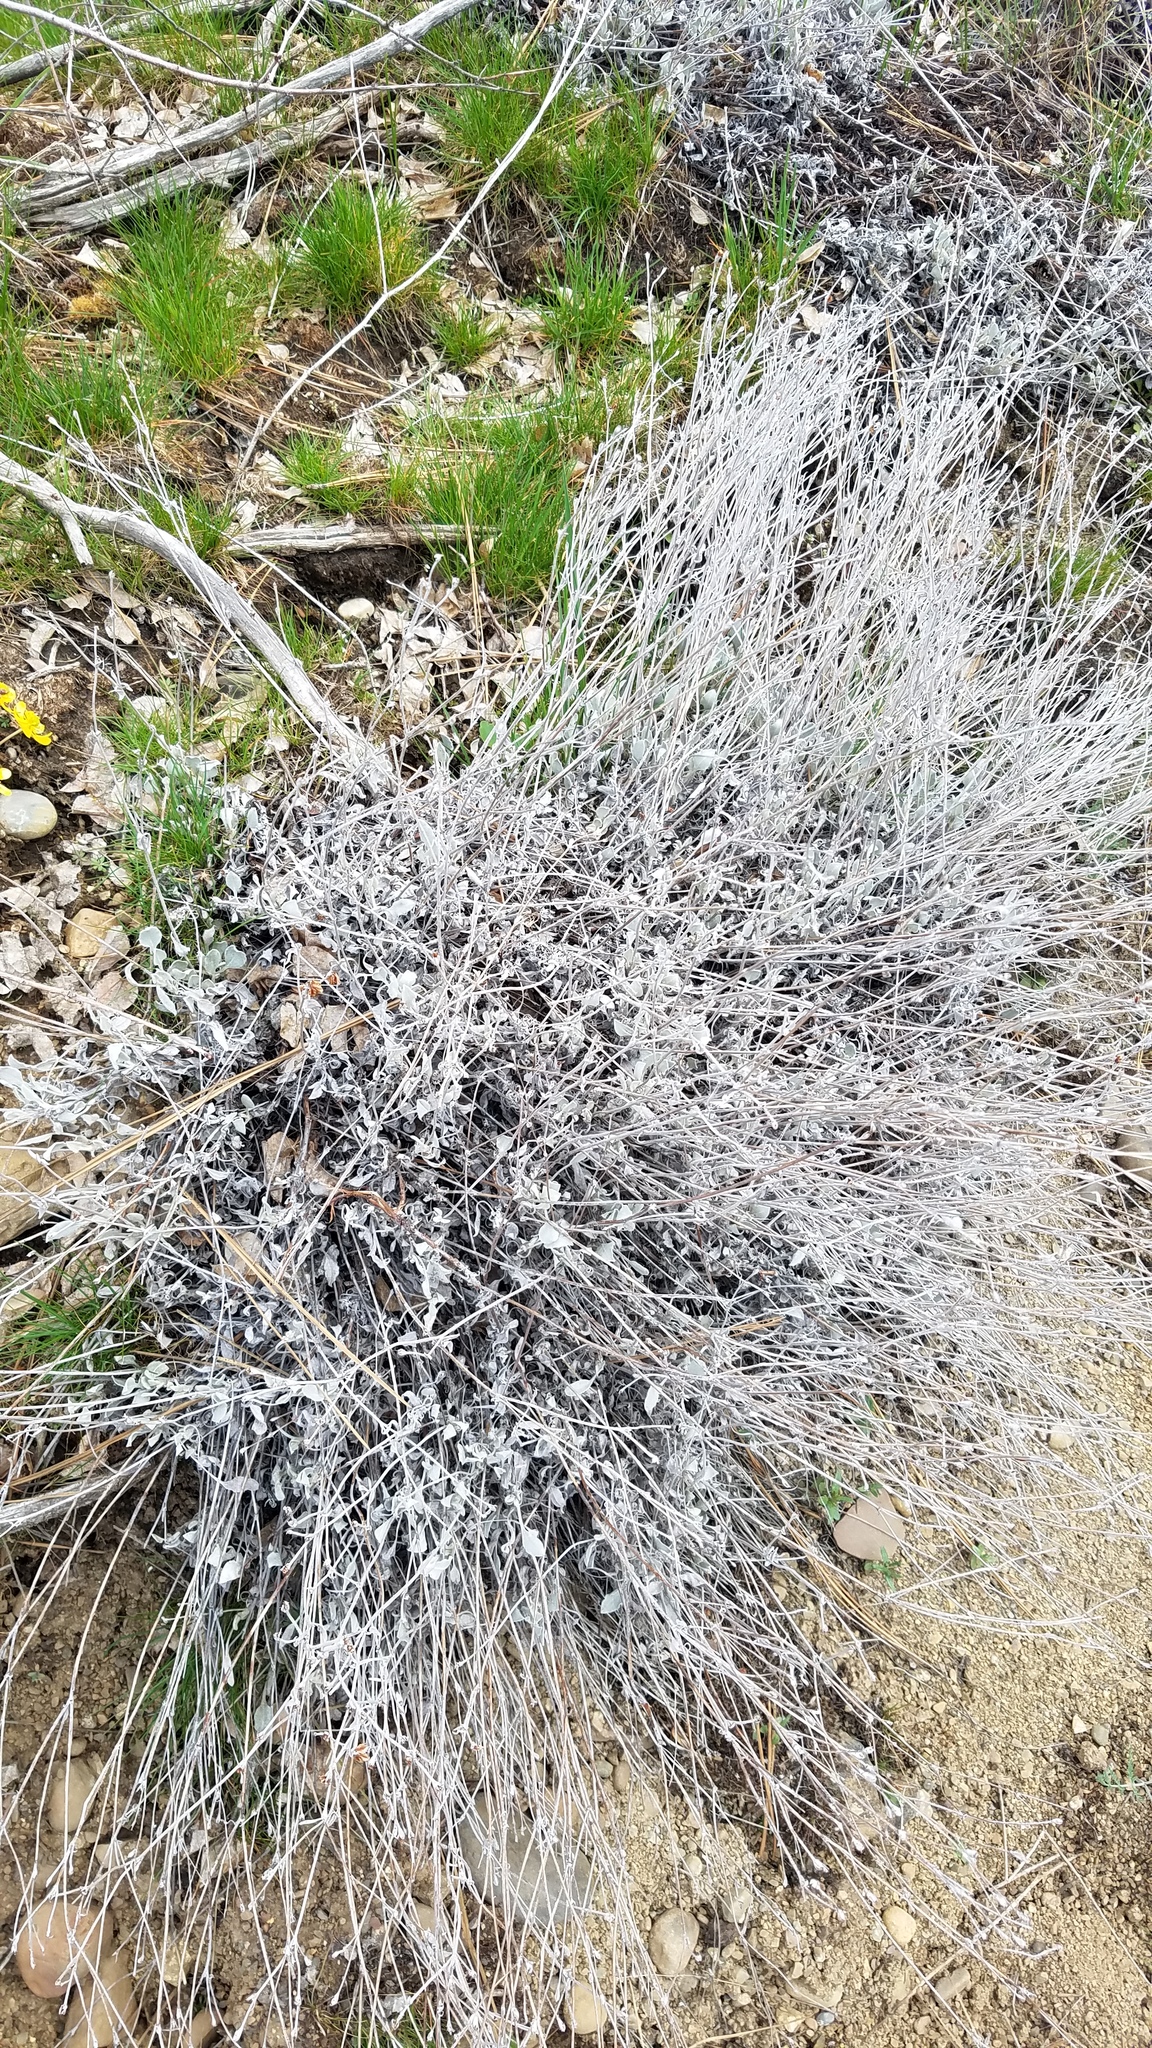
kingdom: Plantae
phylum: Tracheophyta
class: Magnoliopsida
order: Caryophyllales
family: Polygonaceae
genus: Eriogonum
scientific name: Eriogonum niveum
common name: Snow wild buckwheat
